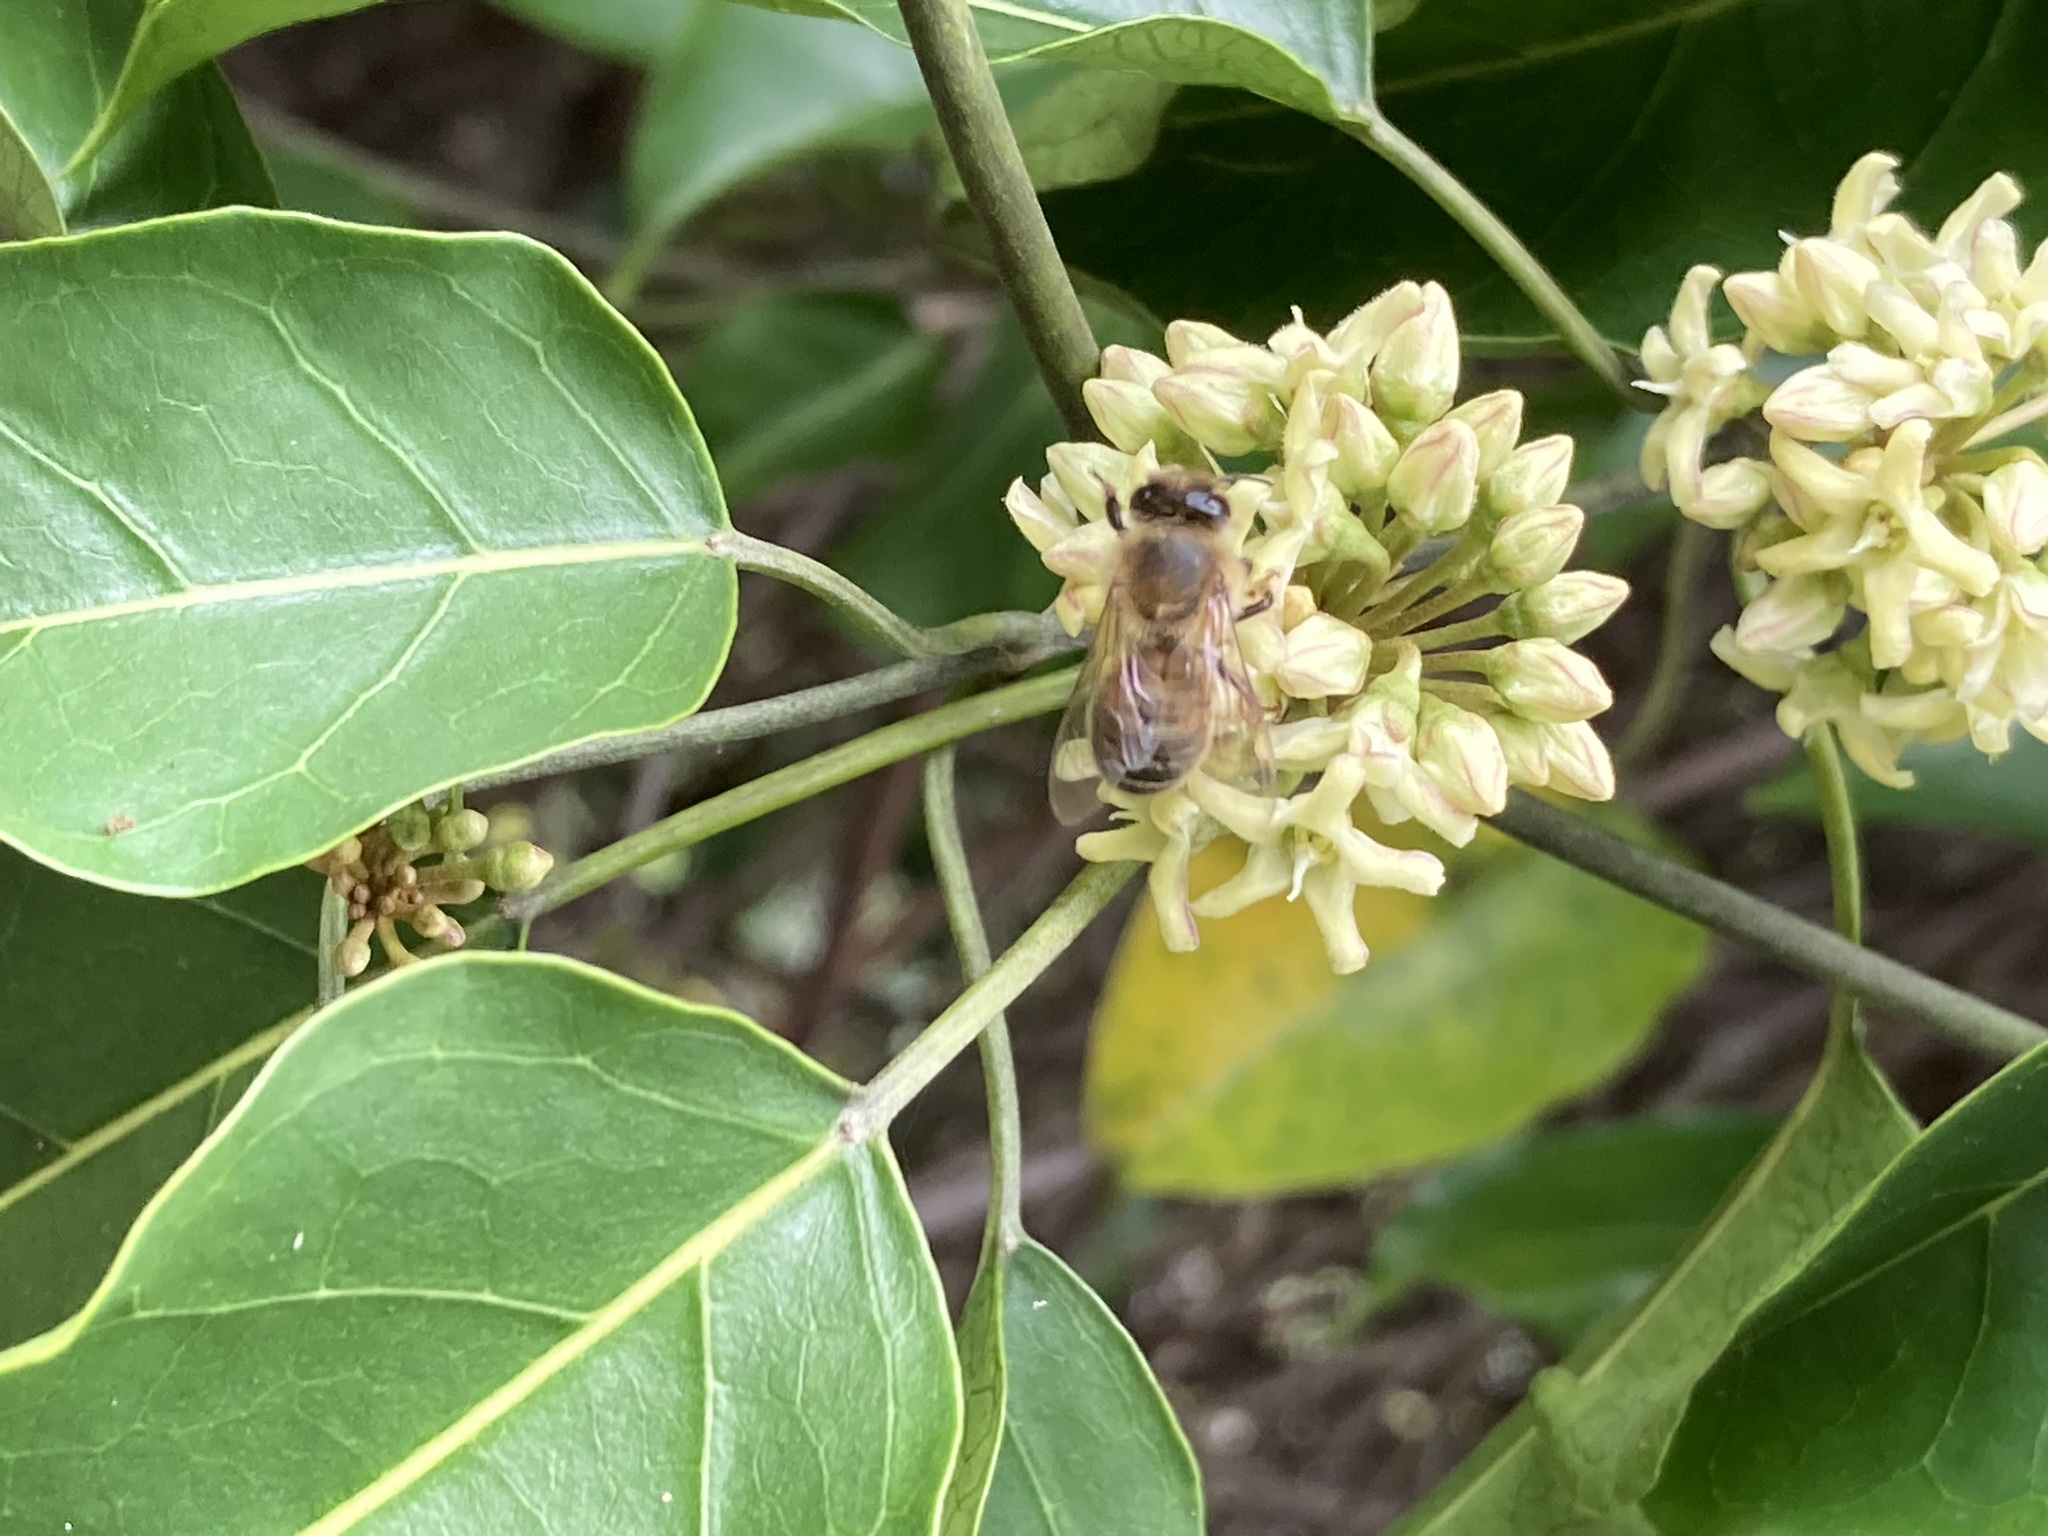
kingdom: Animalia
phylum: Arthropoda
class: Insecta
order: Hymenoptera
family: Apidae
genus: Apis
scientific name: Apis mellifera
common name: Honey bee
